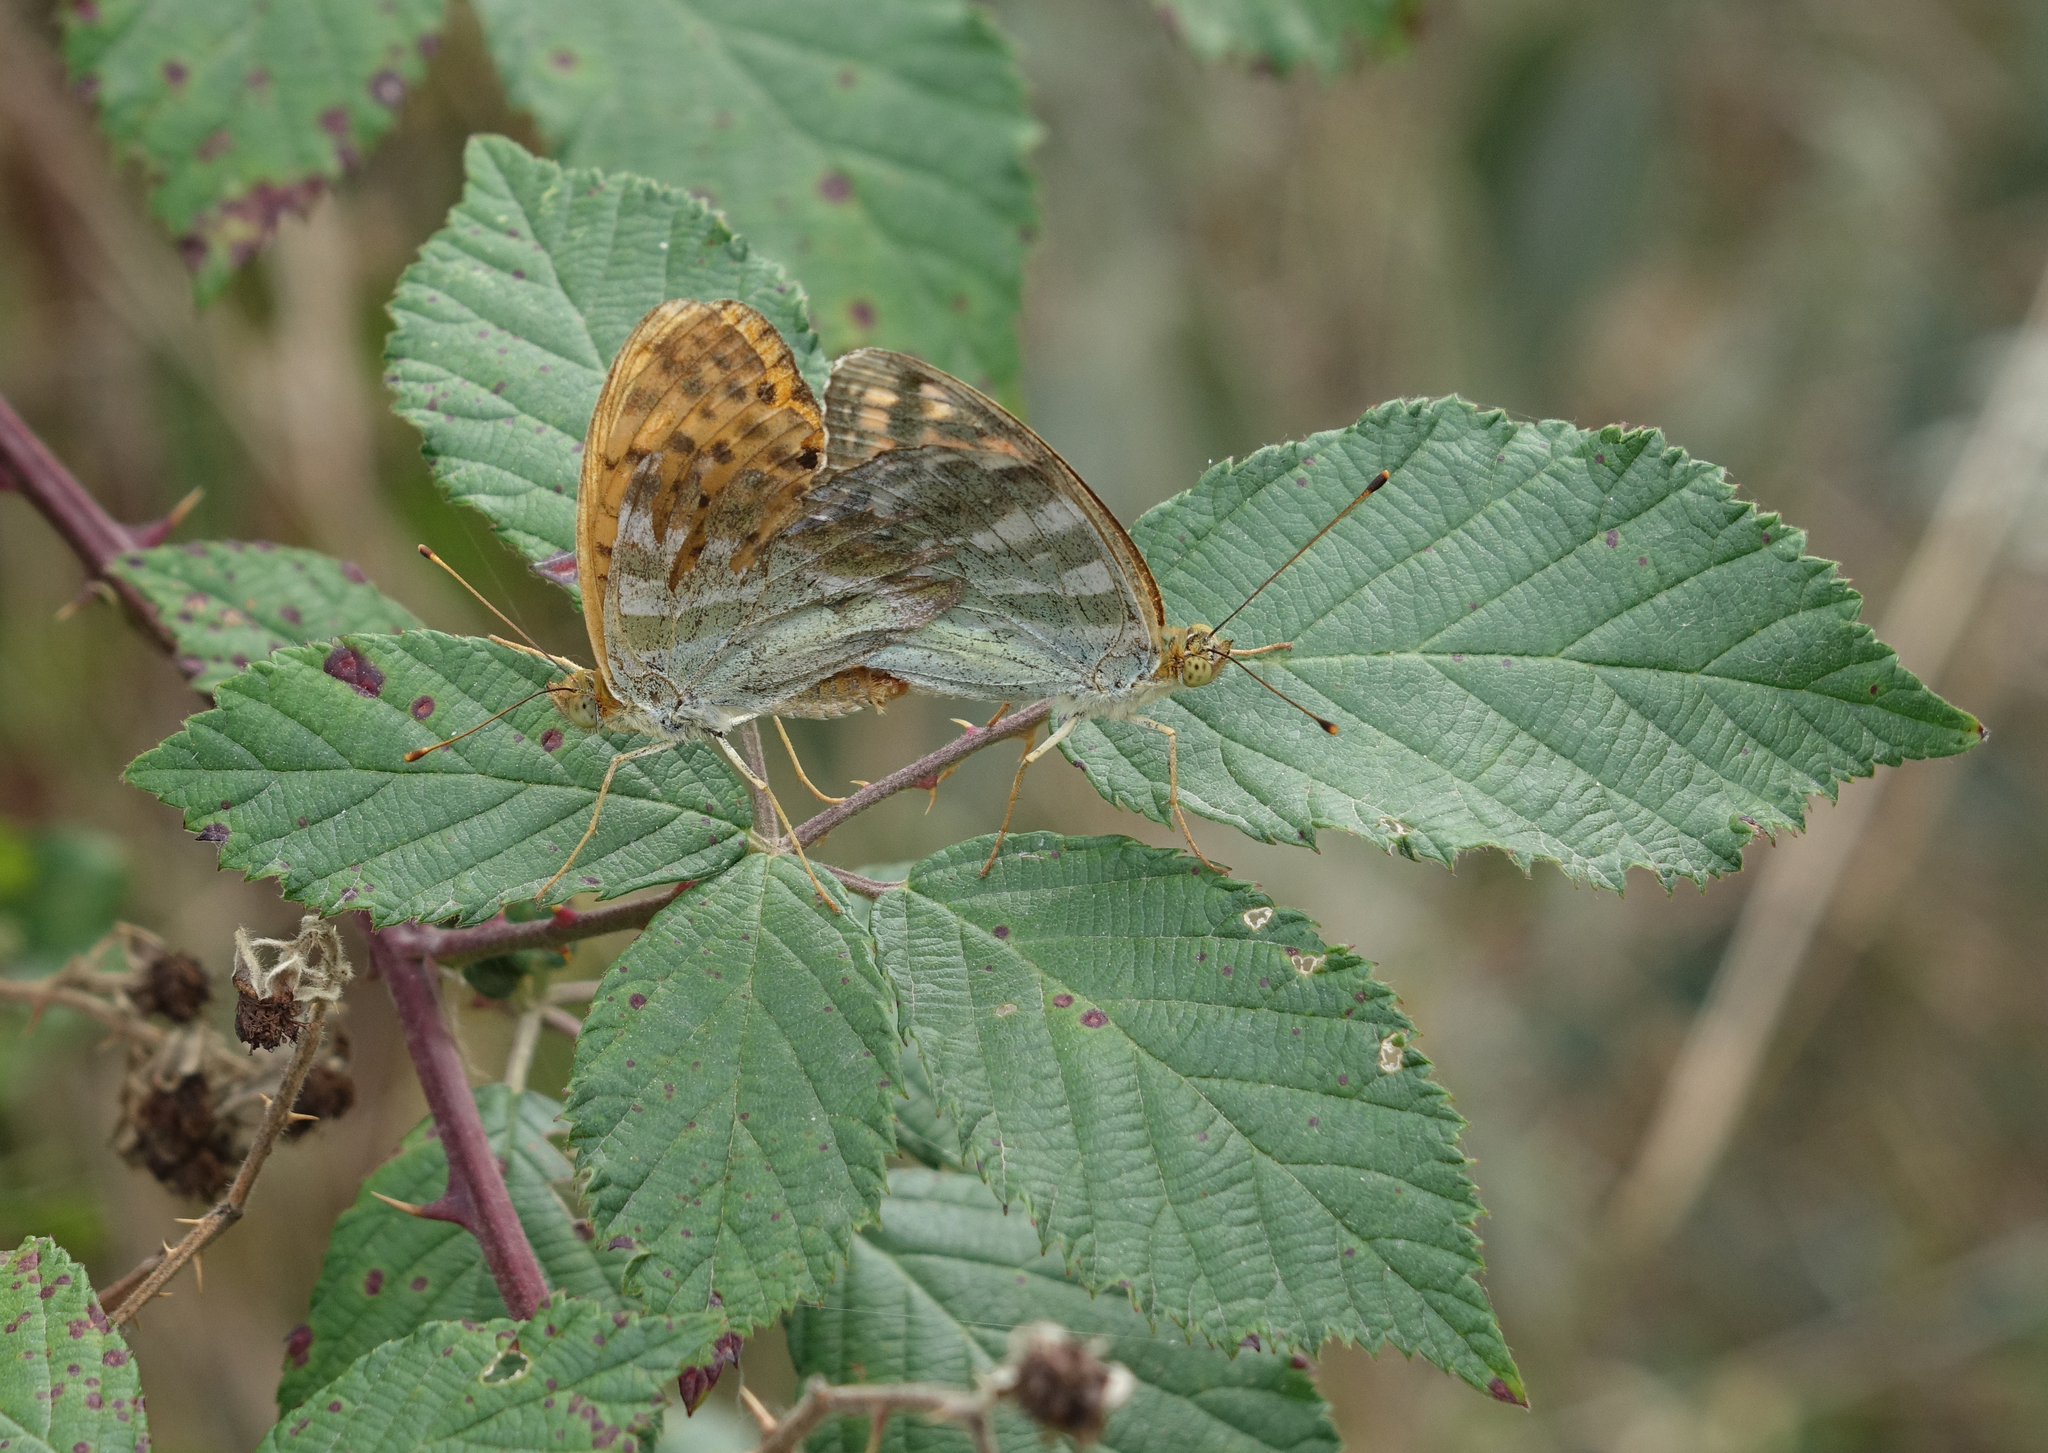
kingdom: Plantae
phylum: Tracheophyta
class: Magnoliopsida
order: Rosales
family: Rosaceae
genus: Rubus
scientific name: Rubus sanctus
